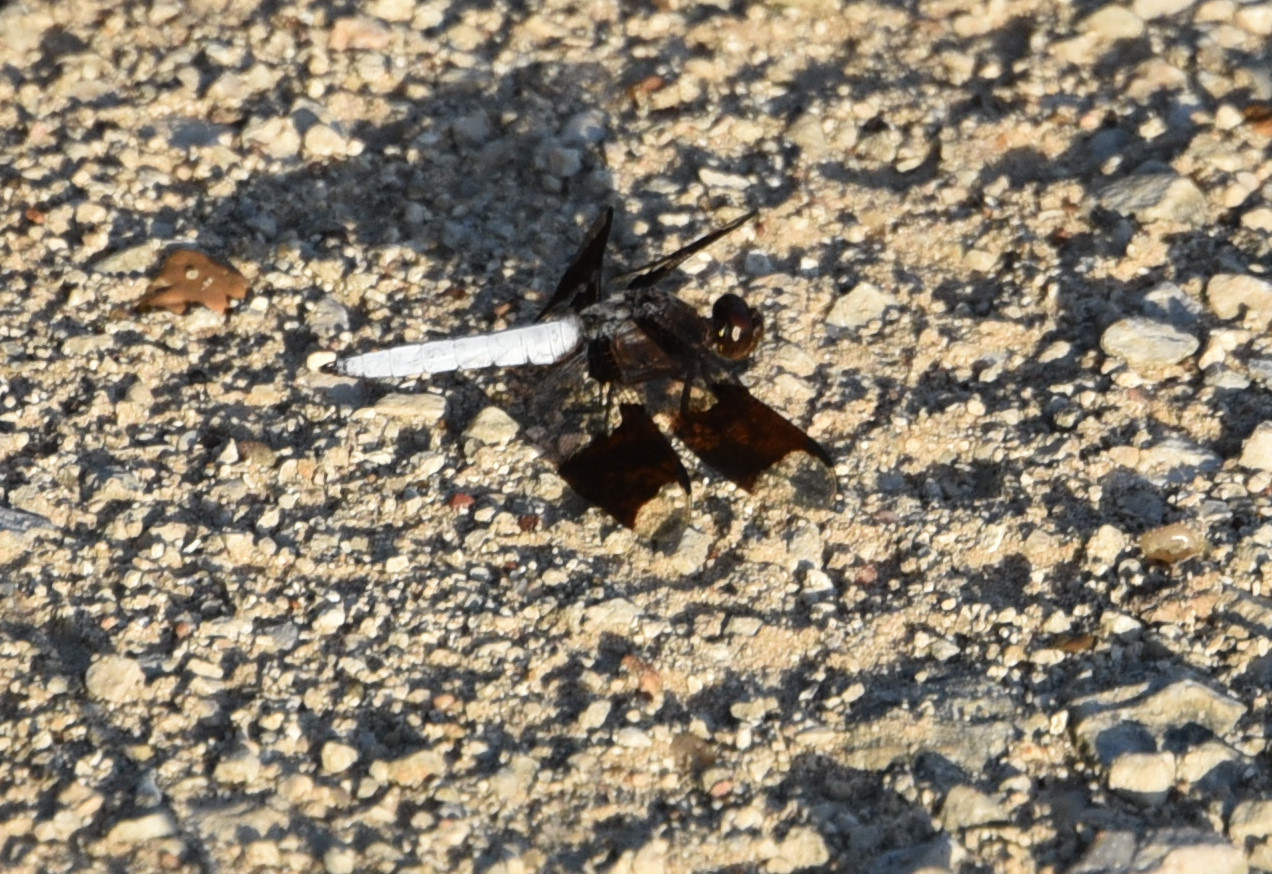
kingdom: Animalia
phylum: Arthropoda
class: Insecta
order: Odonata
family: Libellulidae
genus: Plathemis
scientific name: Plathemis lydia
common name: Common whitetail
